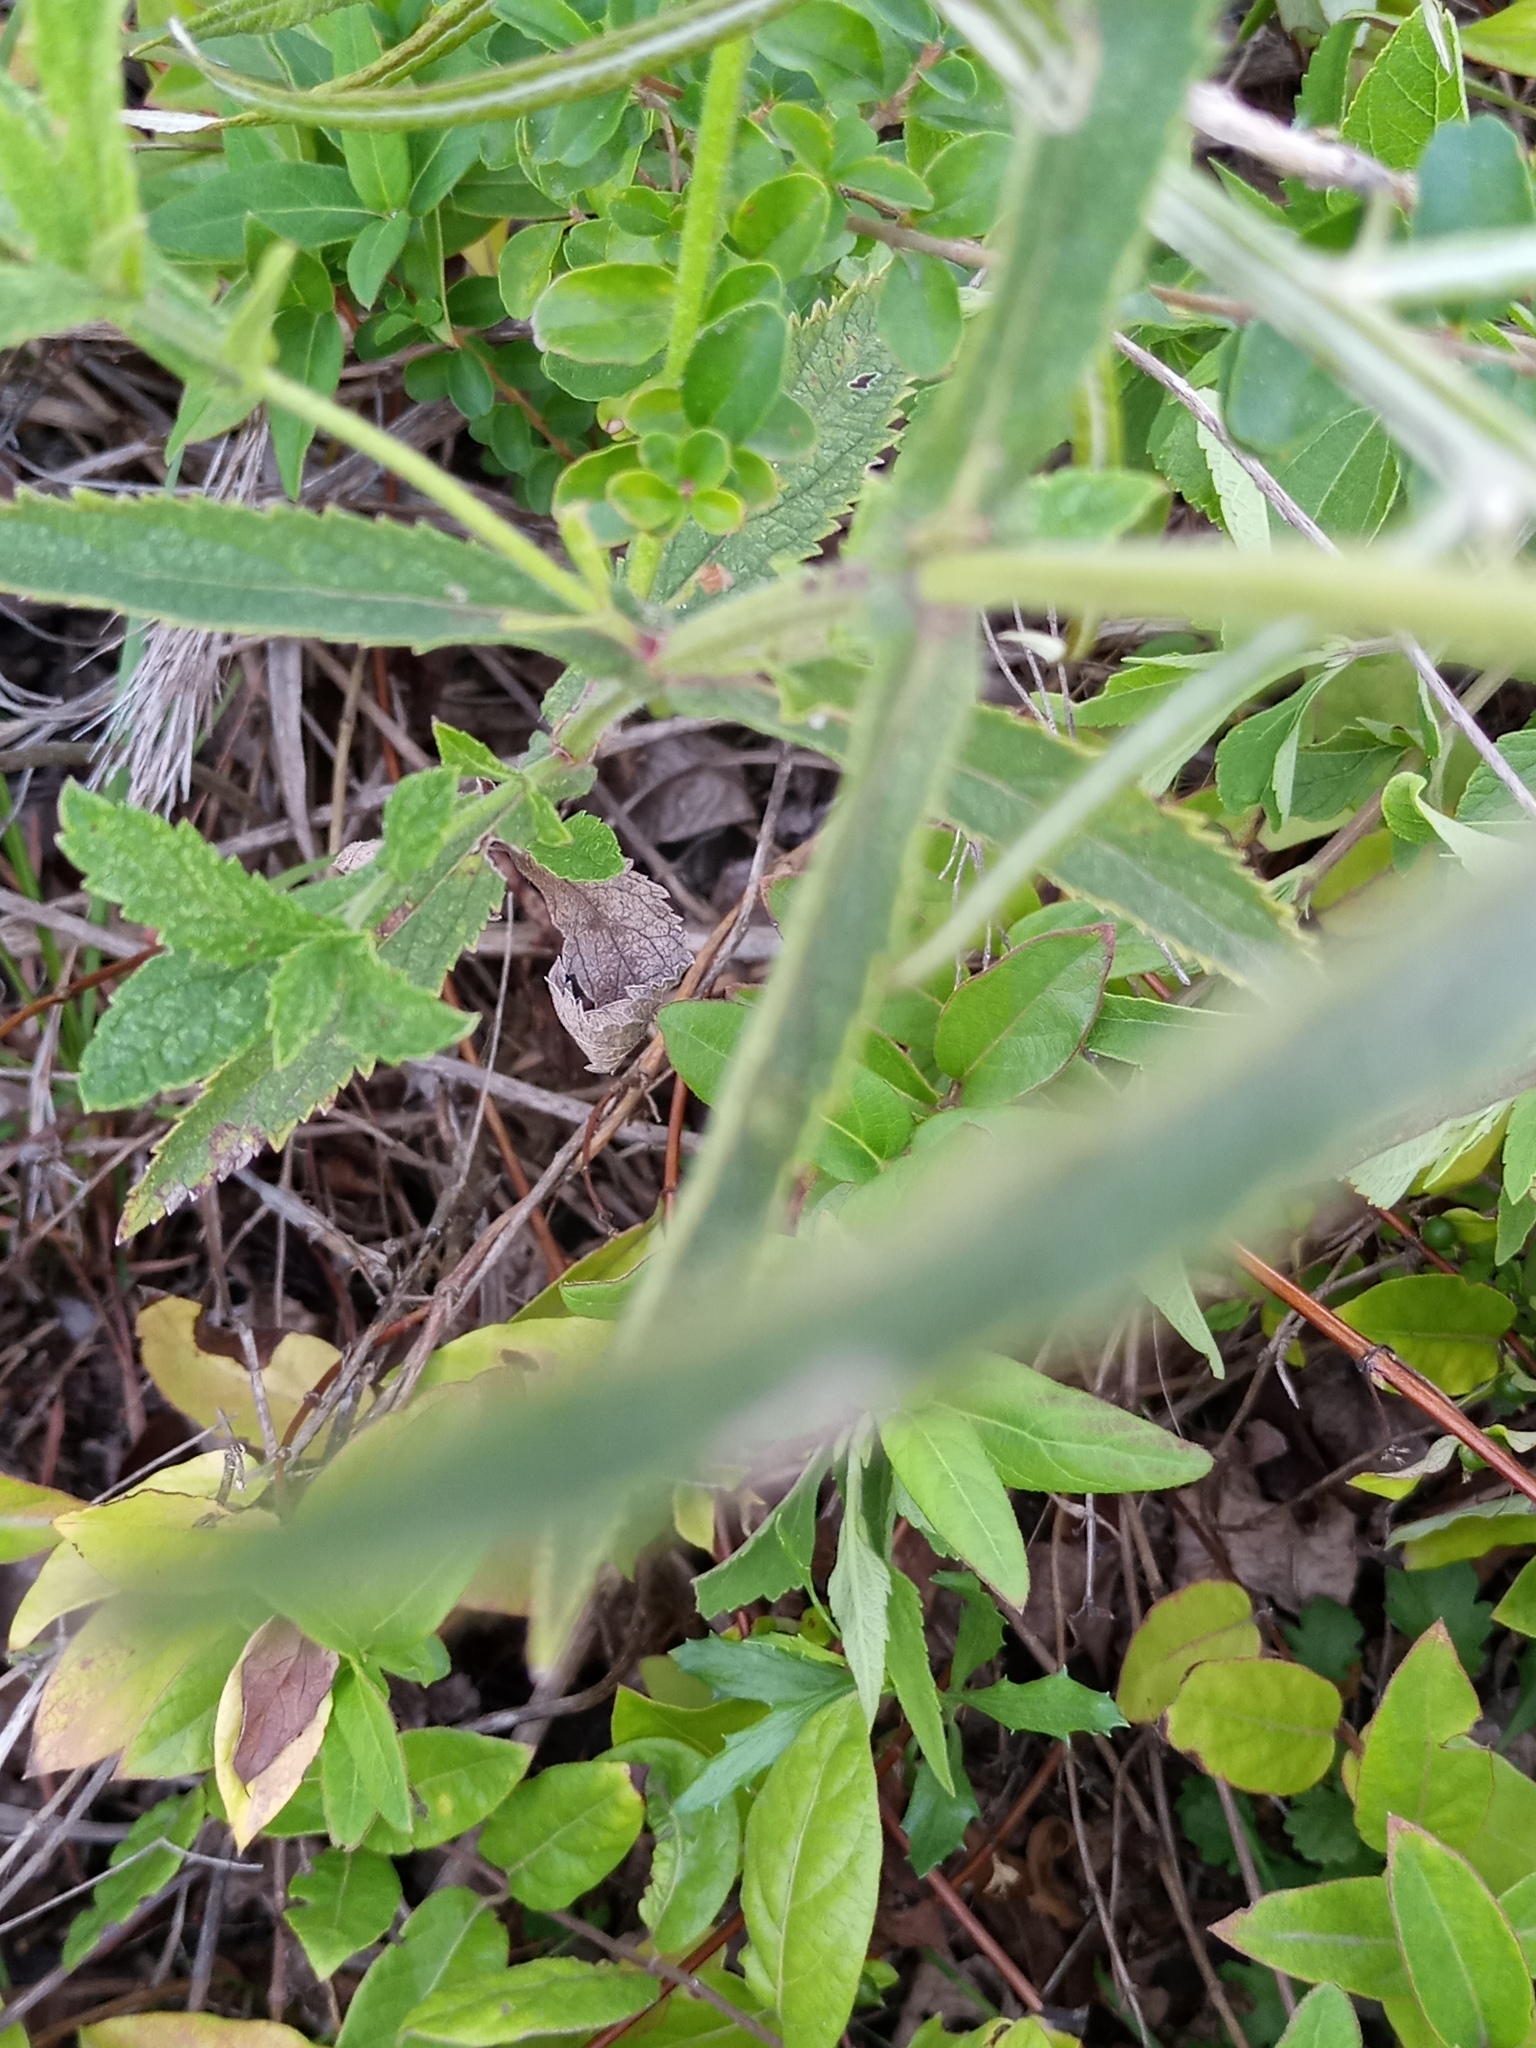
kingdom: Plantae
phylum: Tracheophyta
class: Magnoliopsida
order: Lamiales
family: Verbenaceae
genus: Verbena
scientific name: Verbena bonariensis
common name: Purpletop vervain
